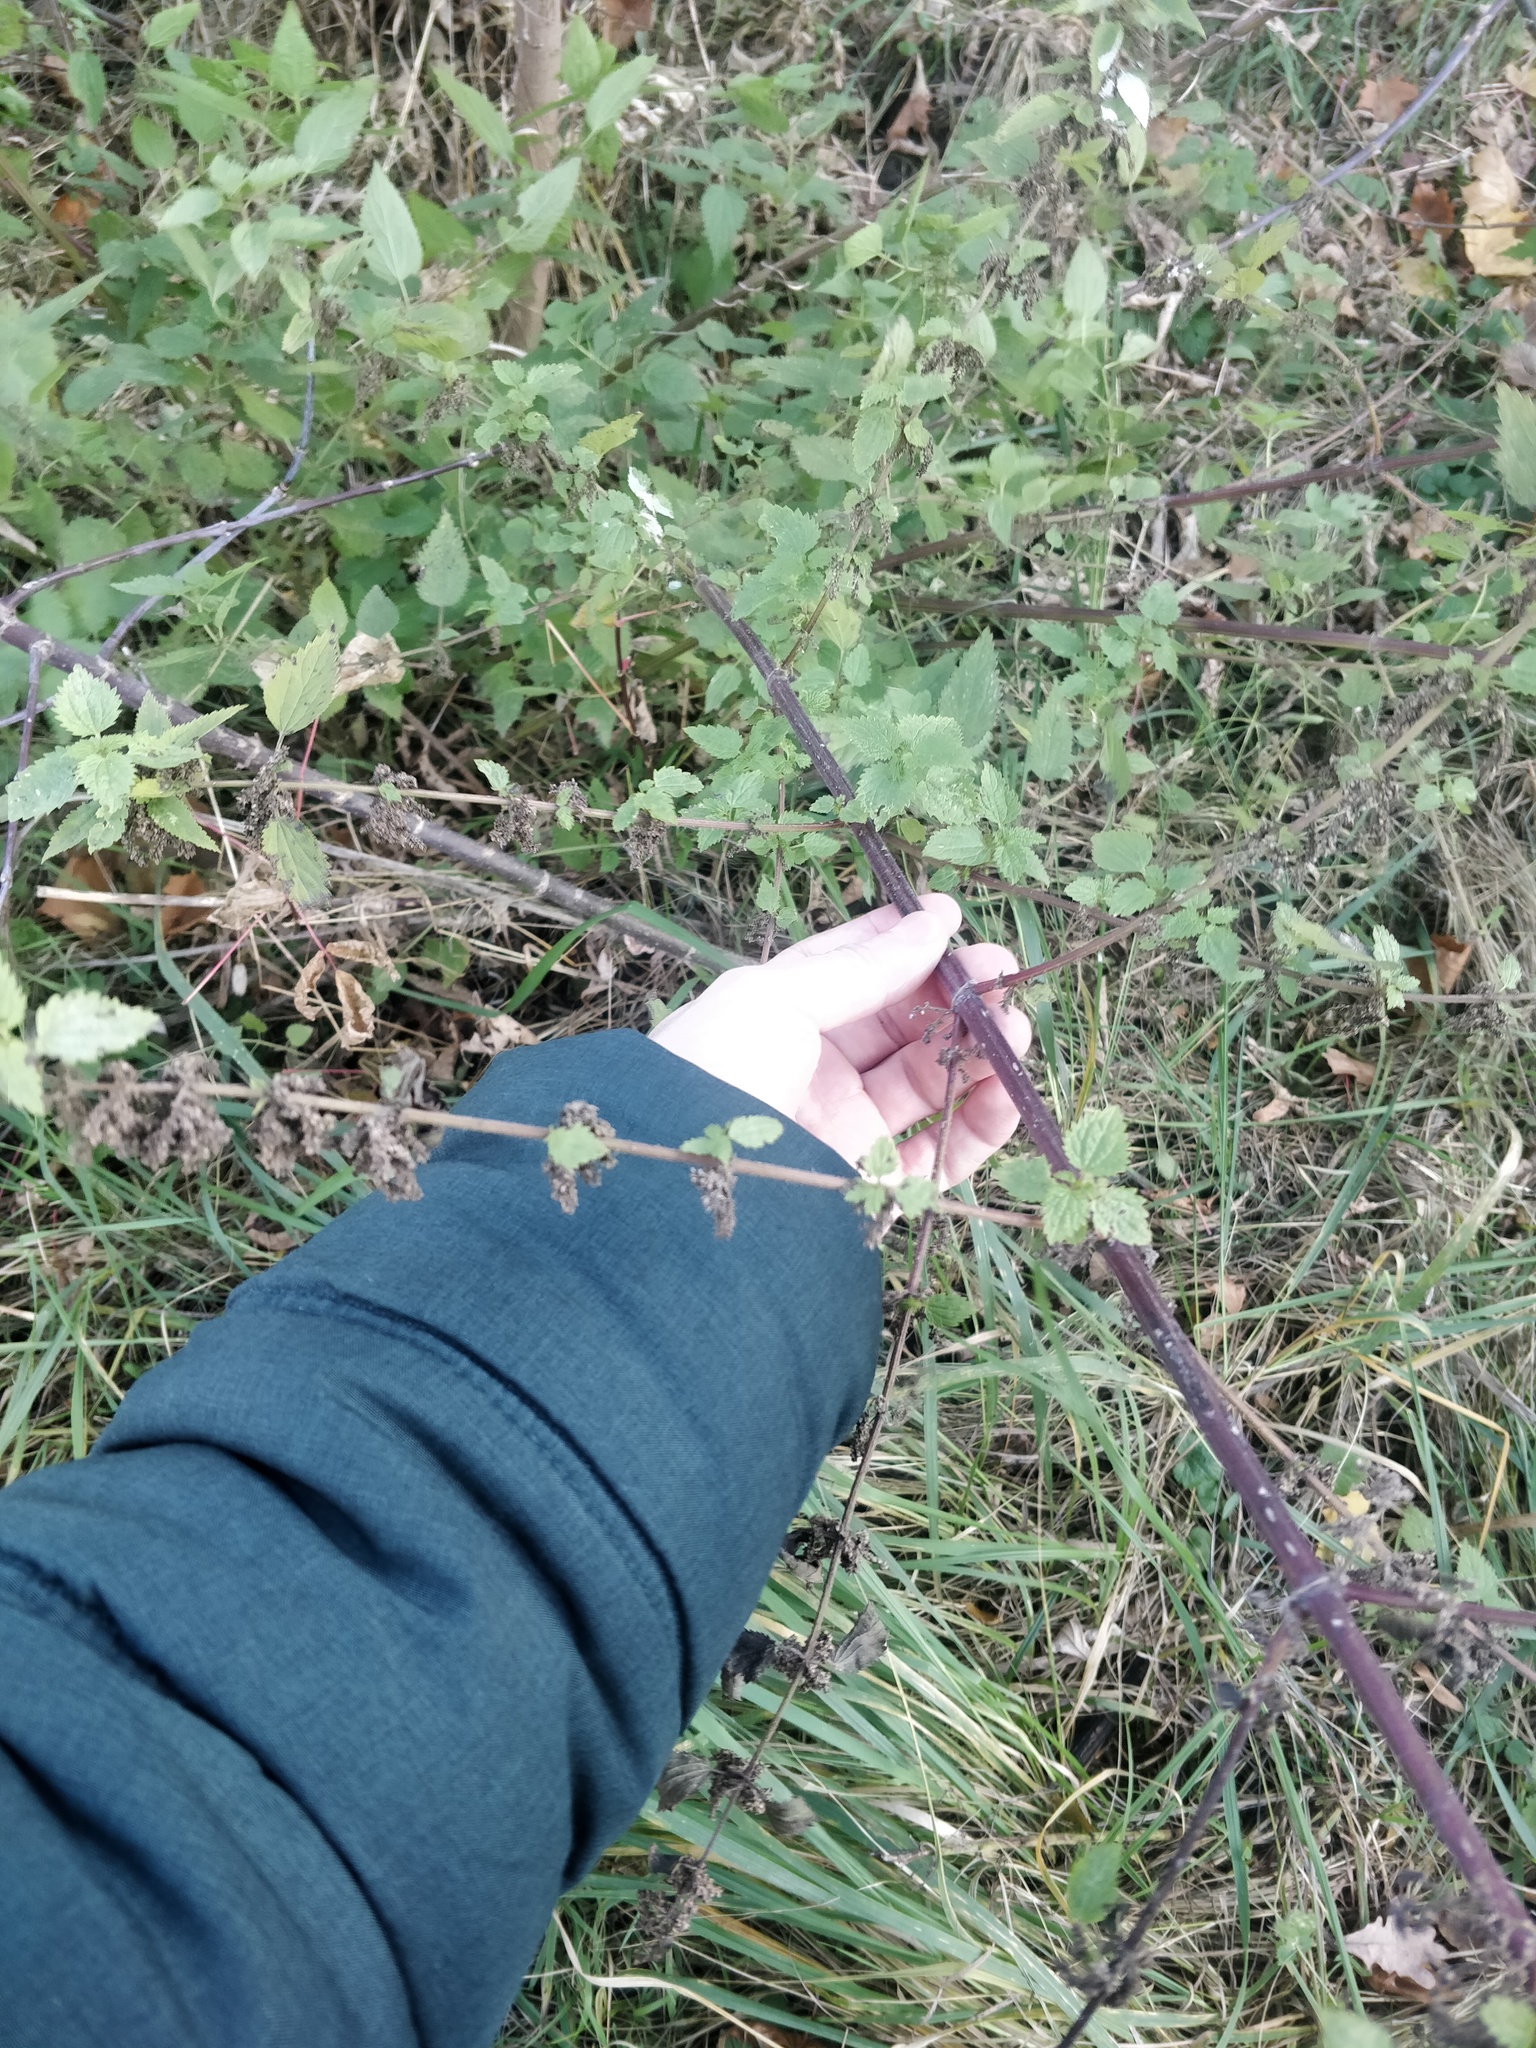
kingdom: Plantae
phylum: Tracheophyta
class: Magnoliopsida
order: Rosales
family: Urticaceae
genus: Urtica
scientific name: Urtica dioica
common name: Common nettle
